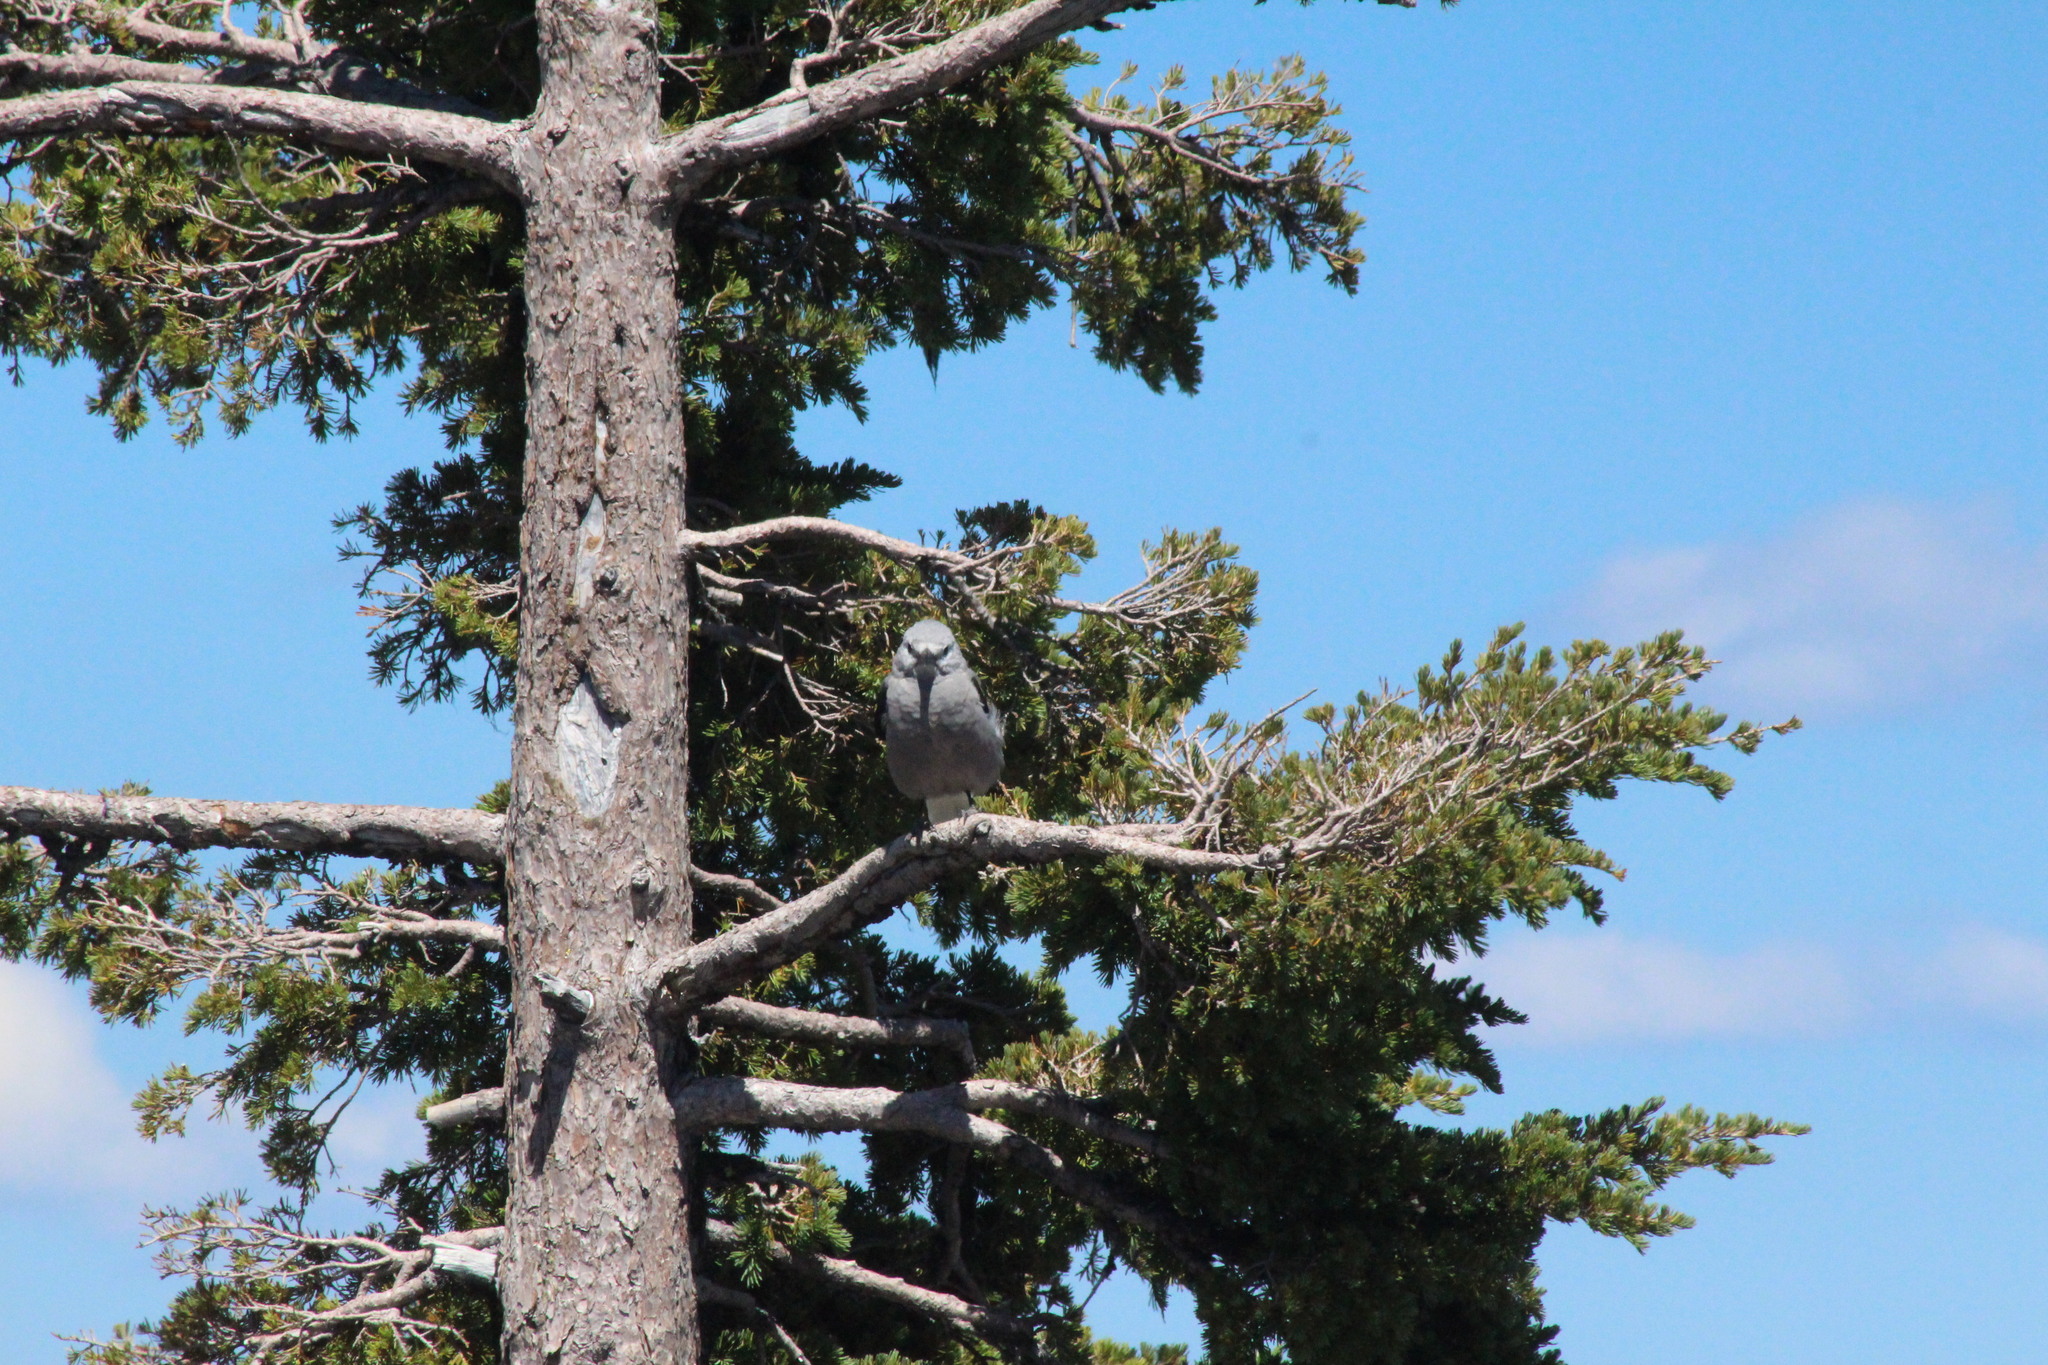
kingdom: Animalia
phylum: Chordata
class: Aves
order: Passeriformes
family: Corvidae
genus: Nucifraga
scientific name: Nucifraga columbiana
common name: Clark's nutcracker
